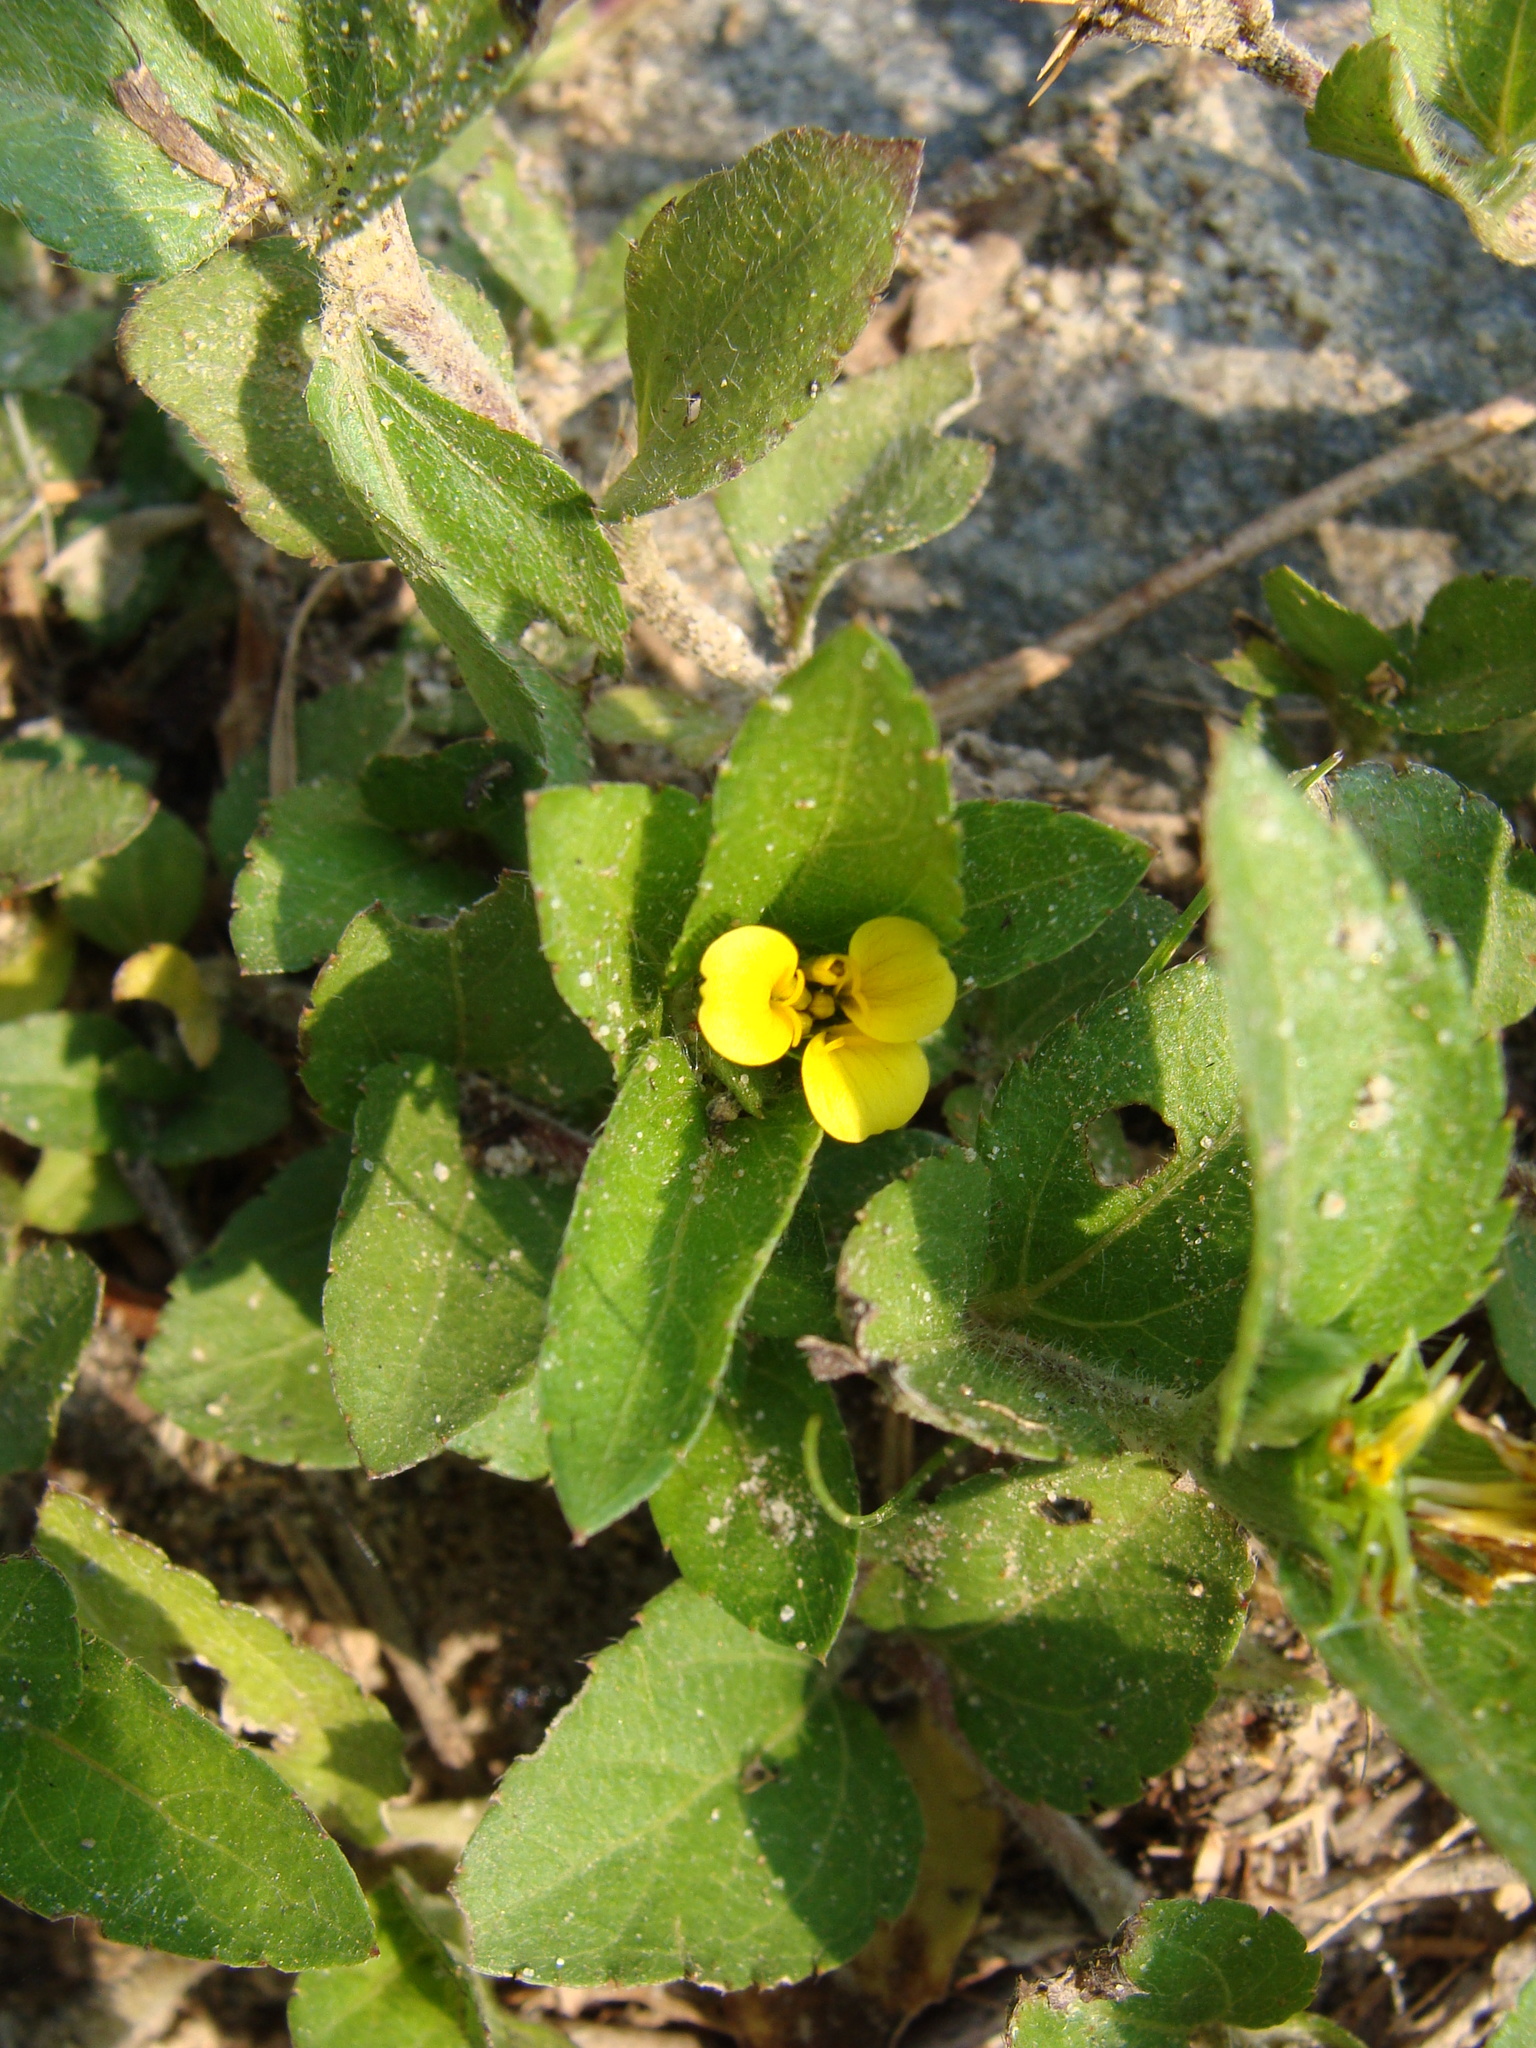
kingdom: Plantae
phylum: Tracheophyta
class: Magnoliopsida
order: Asterales
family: Asteraceae
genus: Calyptocarpus
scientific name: Calyptocarpus vialis
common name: Straggler daisy
